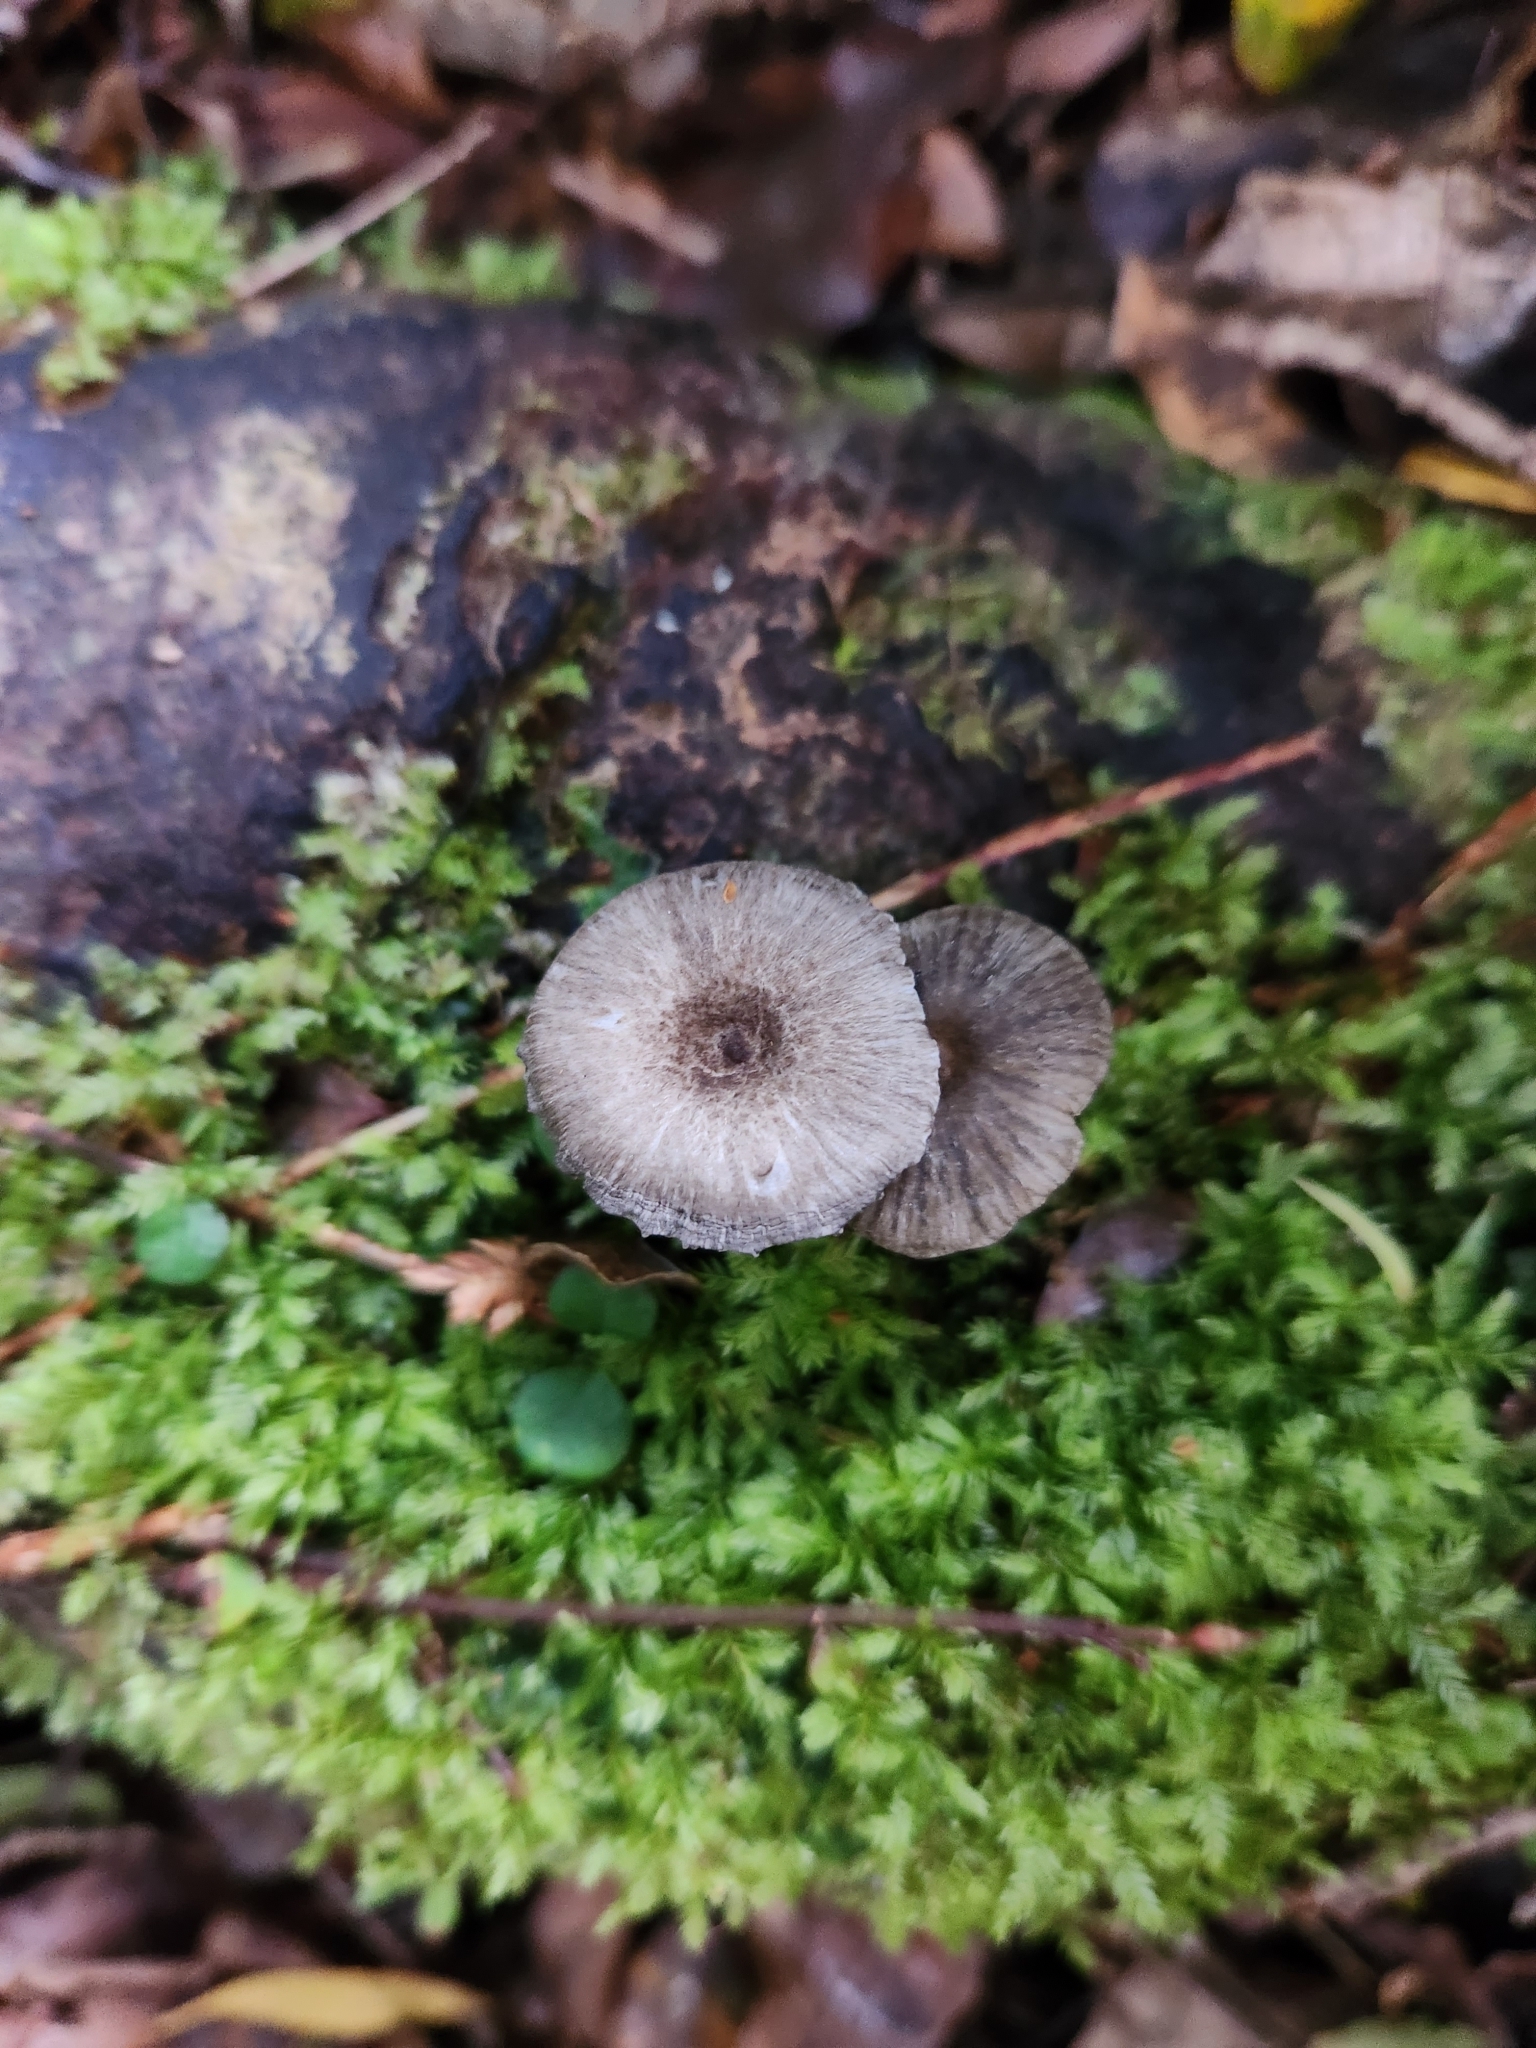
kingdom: Fungi
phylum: Basidiomycota
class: Agaricomycetes
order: Agaricales
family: Pseudoclitocybaceae
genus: Pseudoclitocybe
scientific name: Pseudoclitocybe foetida
